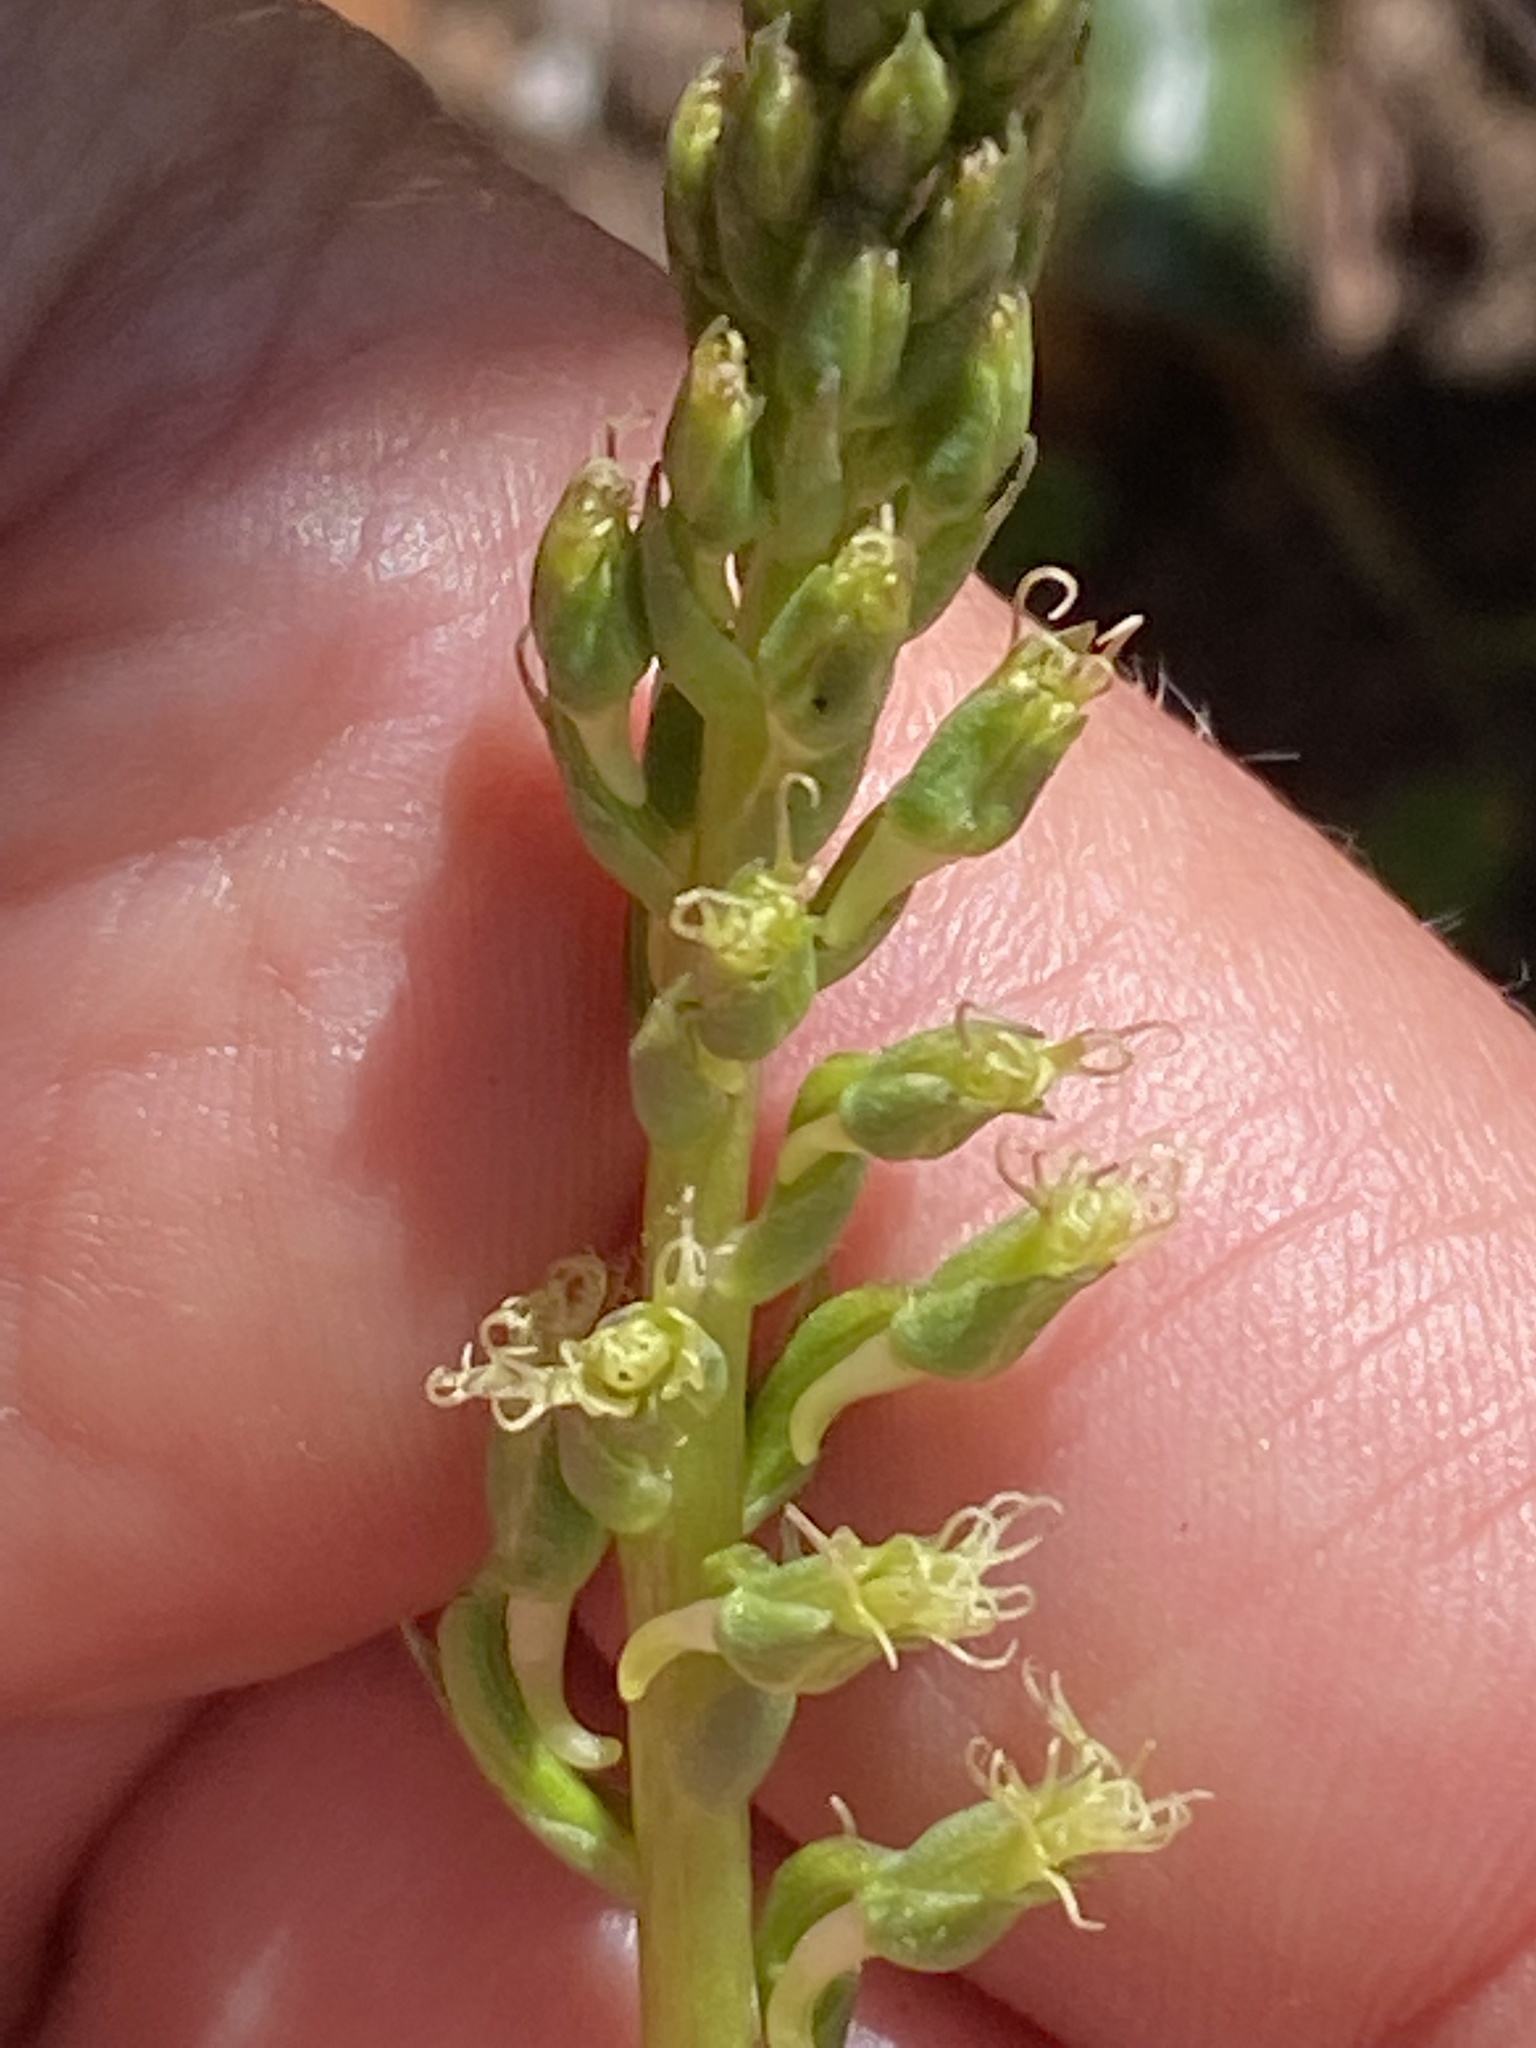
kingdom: Plantae
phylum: Tracheophyta
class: Liliopsida
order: Asparagales
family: Orchidaceae
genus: Holothrix
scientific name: Holothrix burchellii
